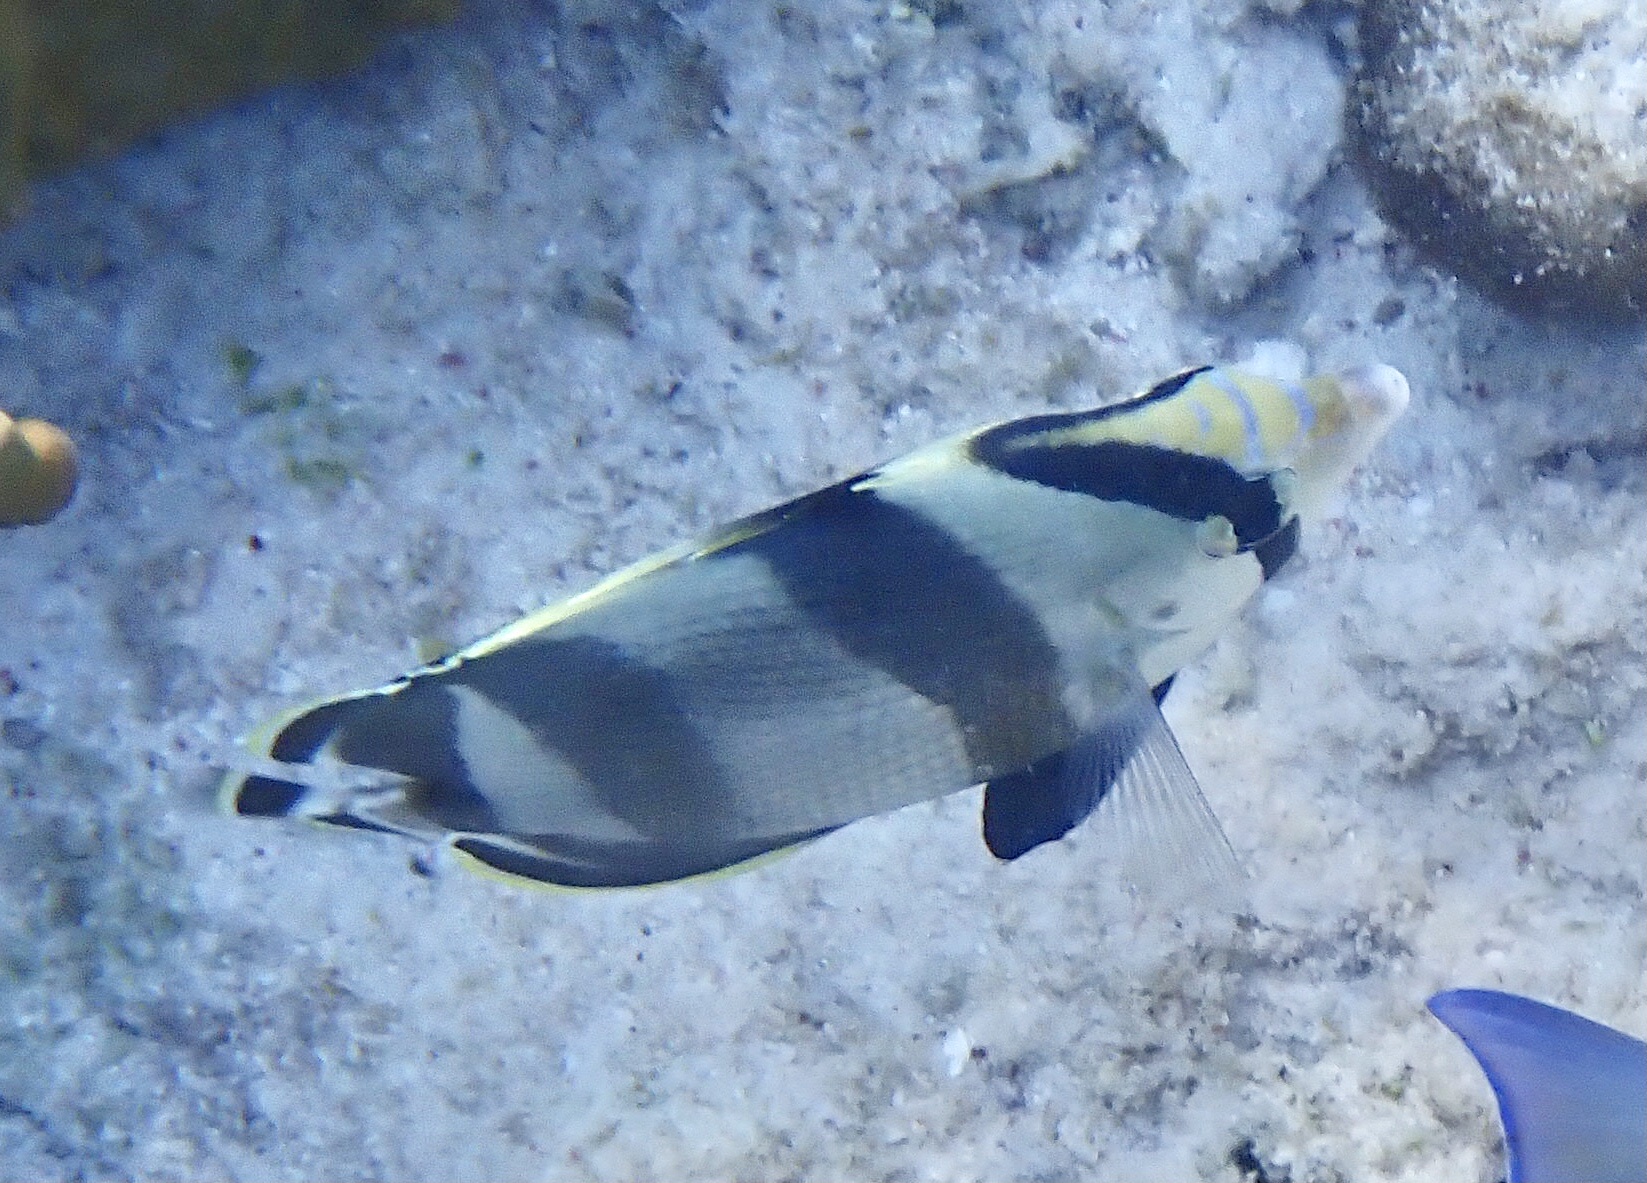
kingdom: Animalia
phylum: Chordata
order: Perciformes
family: Chaetodontidae
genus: Chaetodon
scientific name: Chaetodon striatus
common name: Banded butterflyfish
